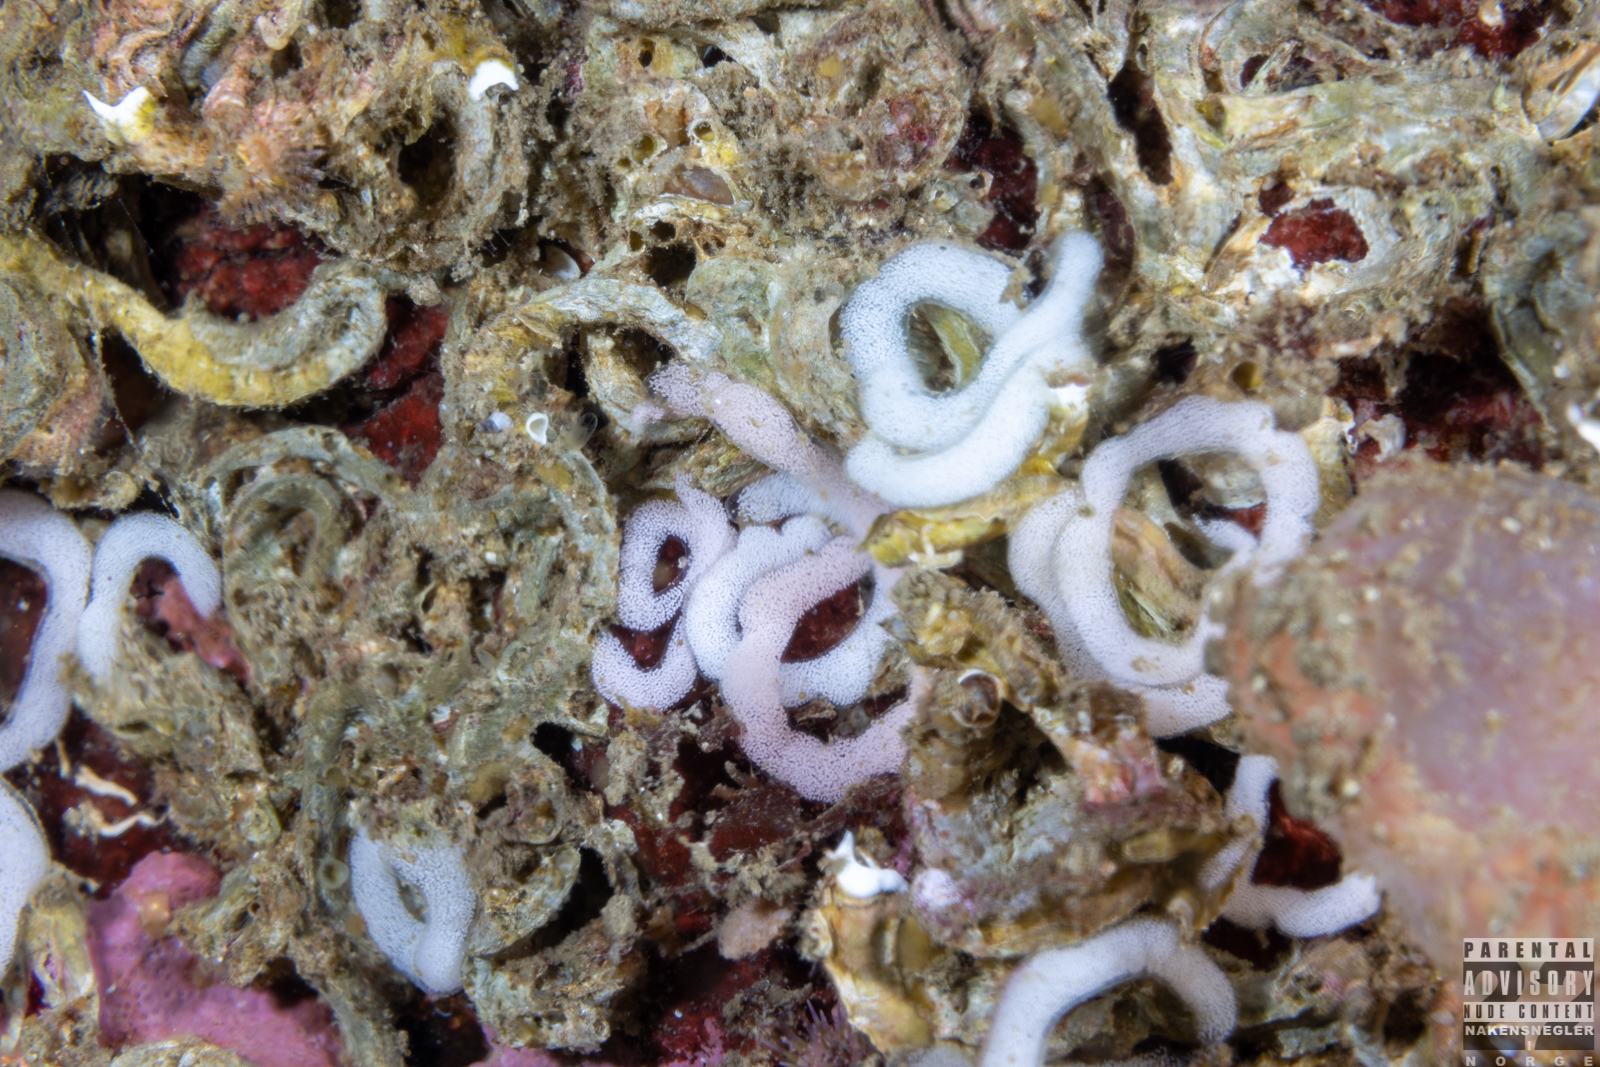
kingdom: Animalia
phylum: Mollusca
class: Gastropoda
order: Nudibranchia
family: Goniodorididae
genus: Okenia
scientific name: Okenia
